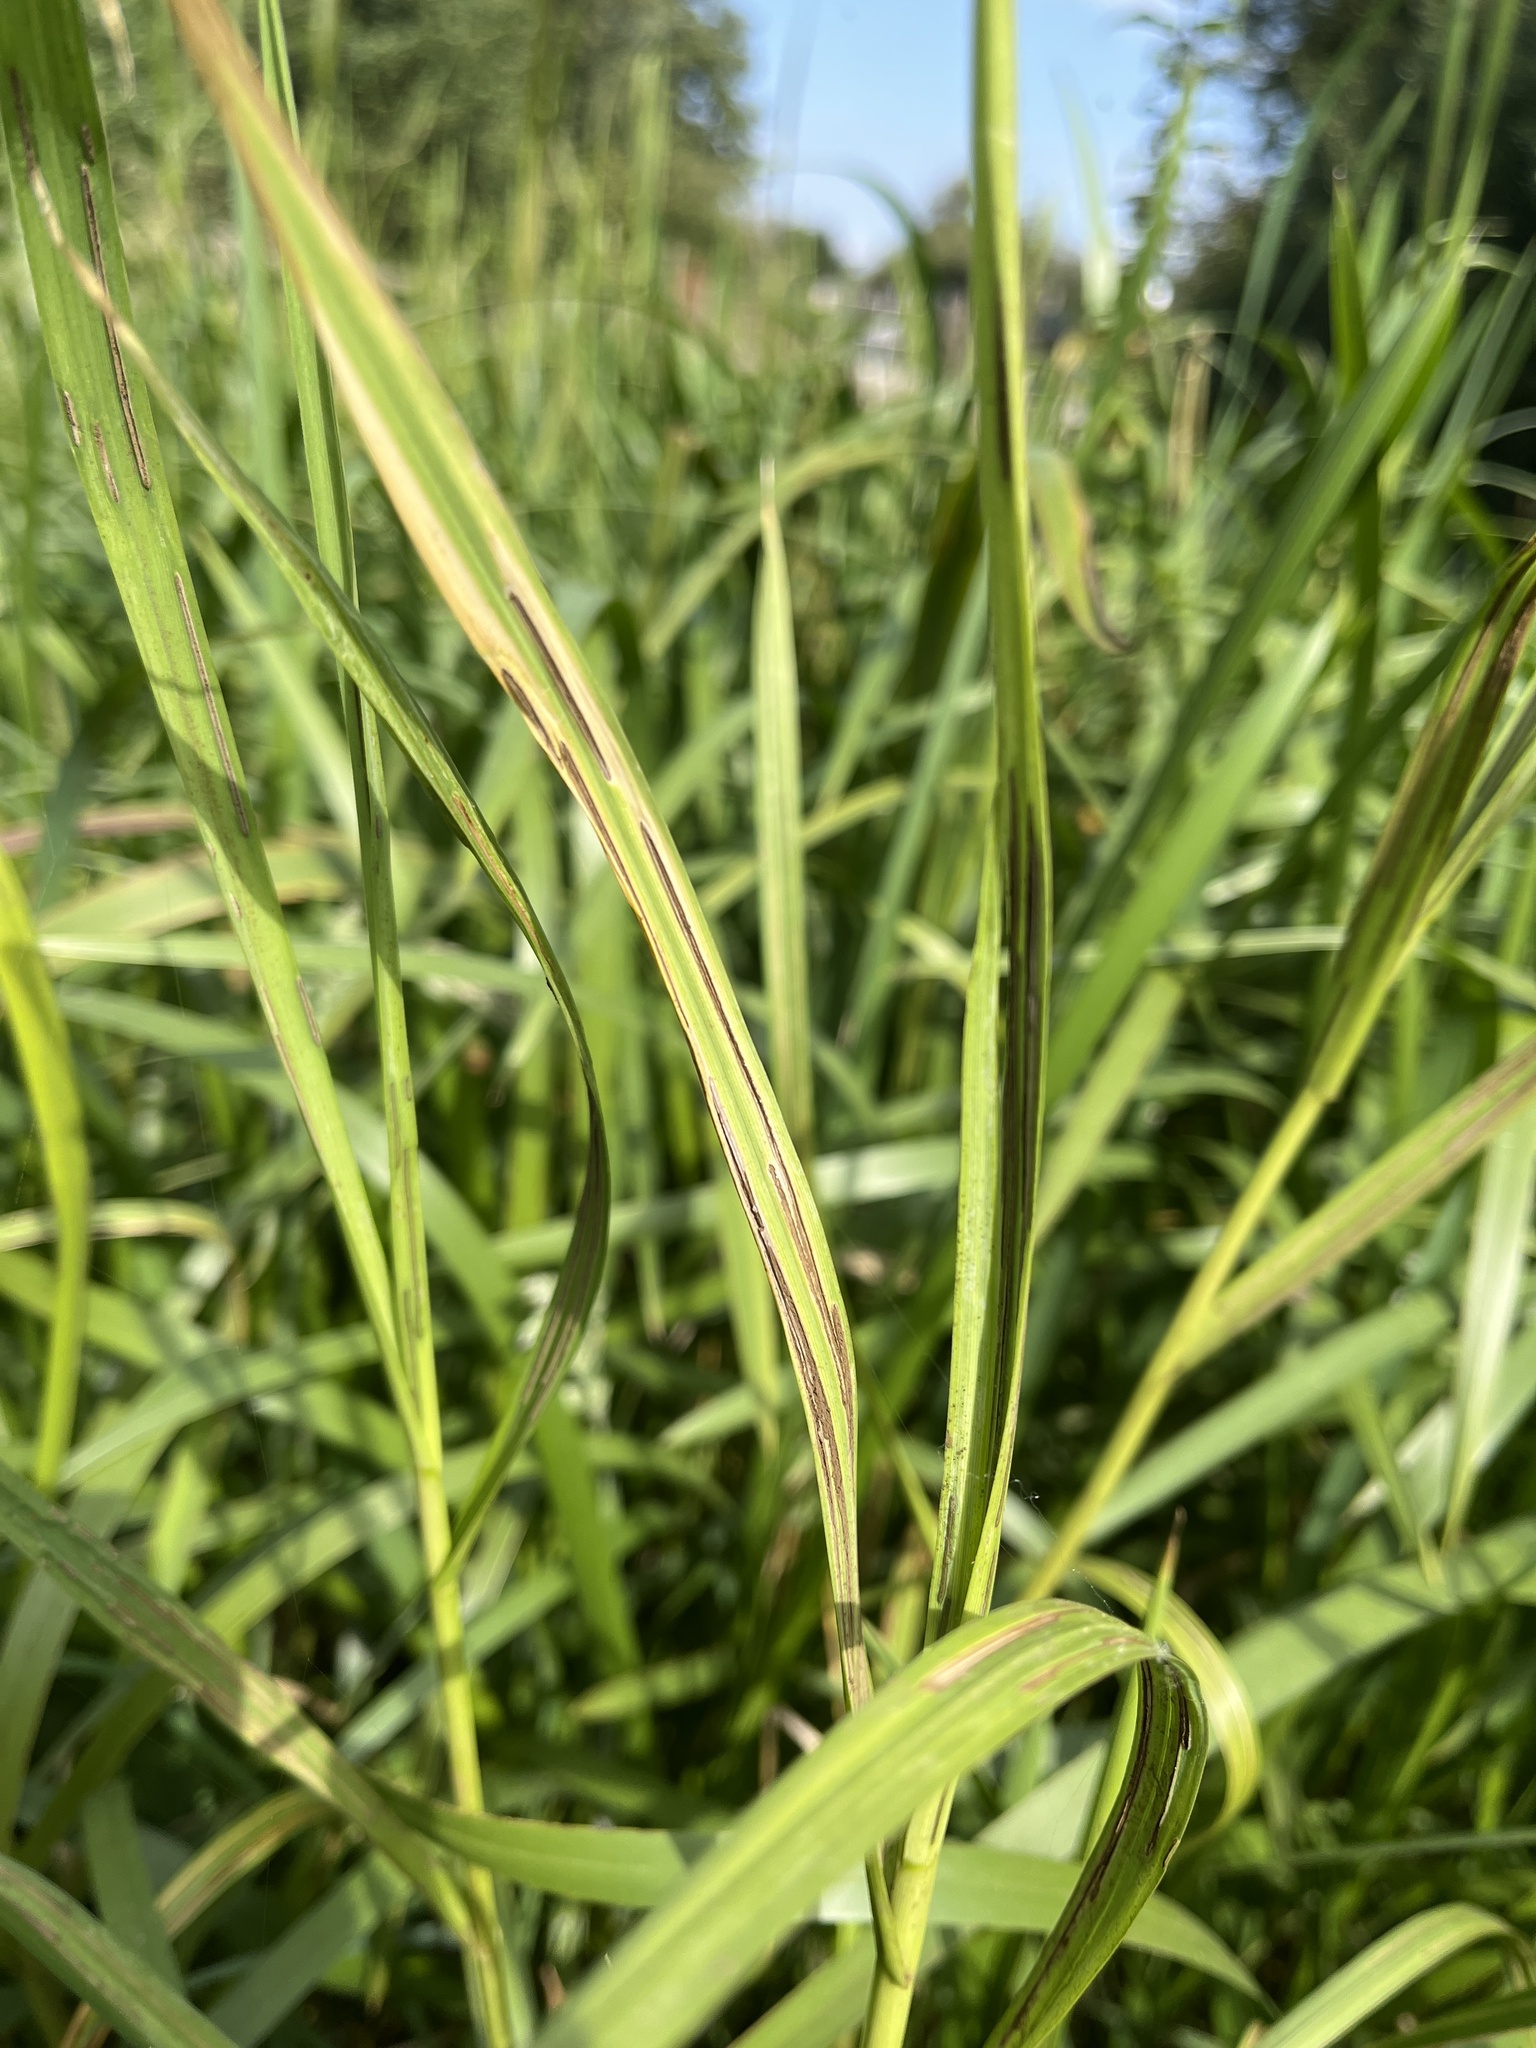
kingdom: Fungi
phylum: Basidiomycota
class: Ustilaginomycetes
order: Ustilaginales
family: Ustilaginaceae
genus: Ustilago
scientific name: Ustilago filiformis
